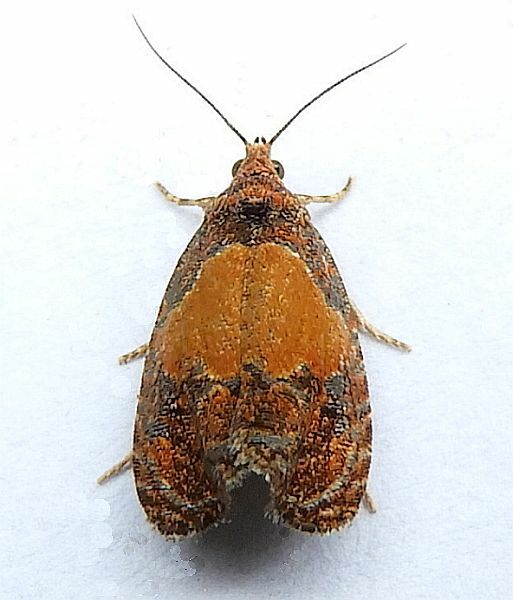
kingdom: Animalia
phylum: Arthropoda
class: Insecta
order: Lepidoptera
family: Tortricidae
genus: Olethreutes
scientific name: Olethreutes osmundana
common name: Fern olethreutes moth
